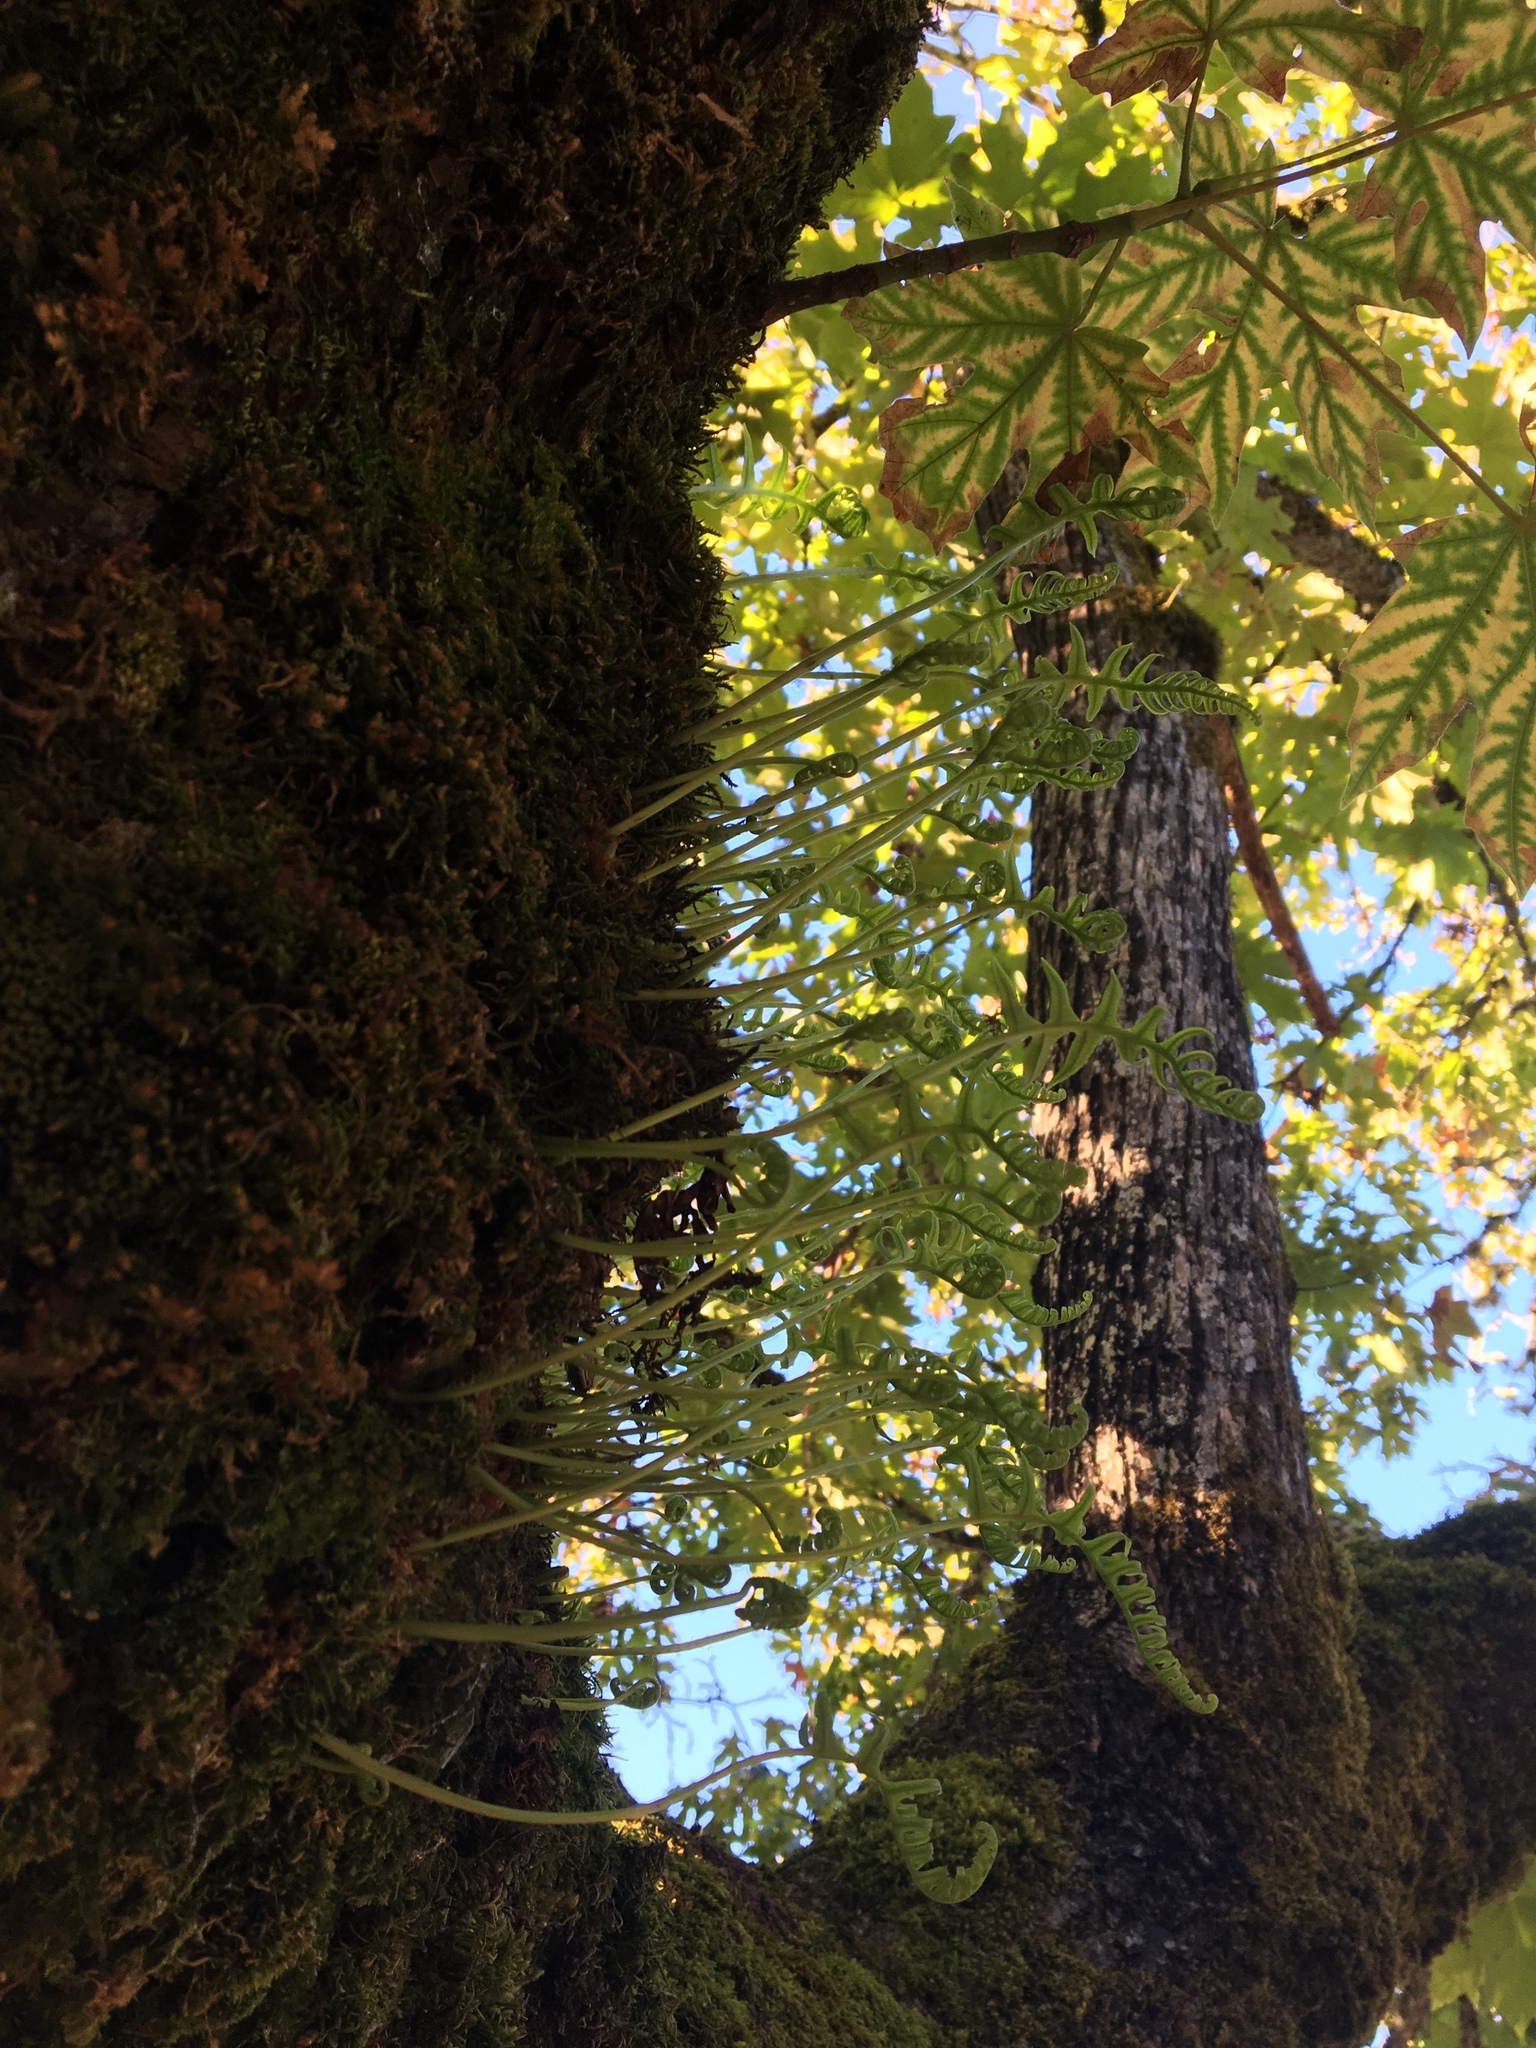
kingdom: Plantae
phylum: Tracheophyta
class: Polypodiopsida
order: Polypodiales
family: Polypodiaceae
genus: Polypodium
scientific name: Polypodium glycyrrhiza
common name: Licorice fern
